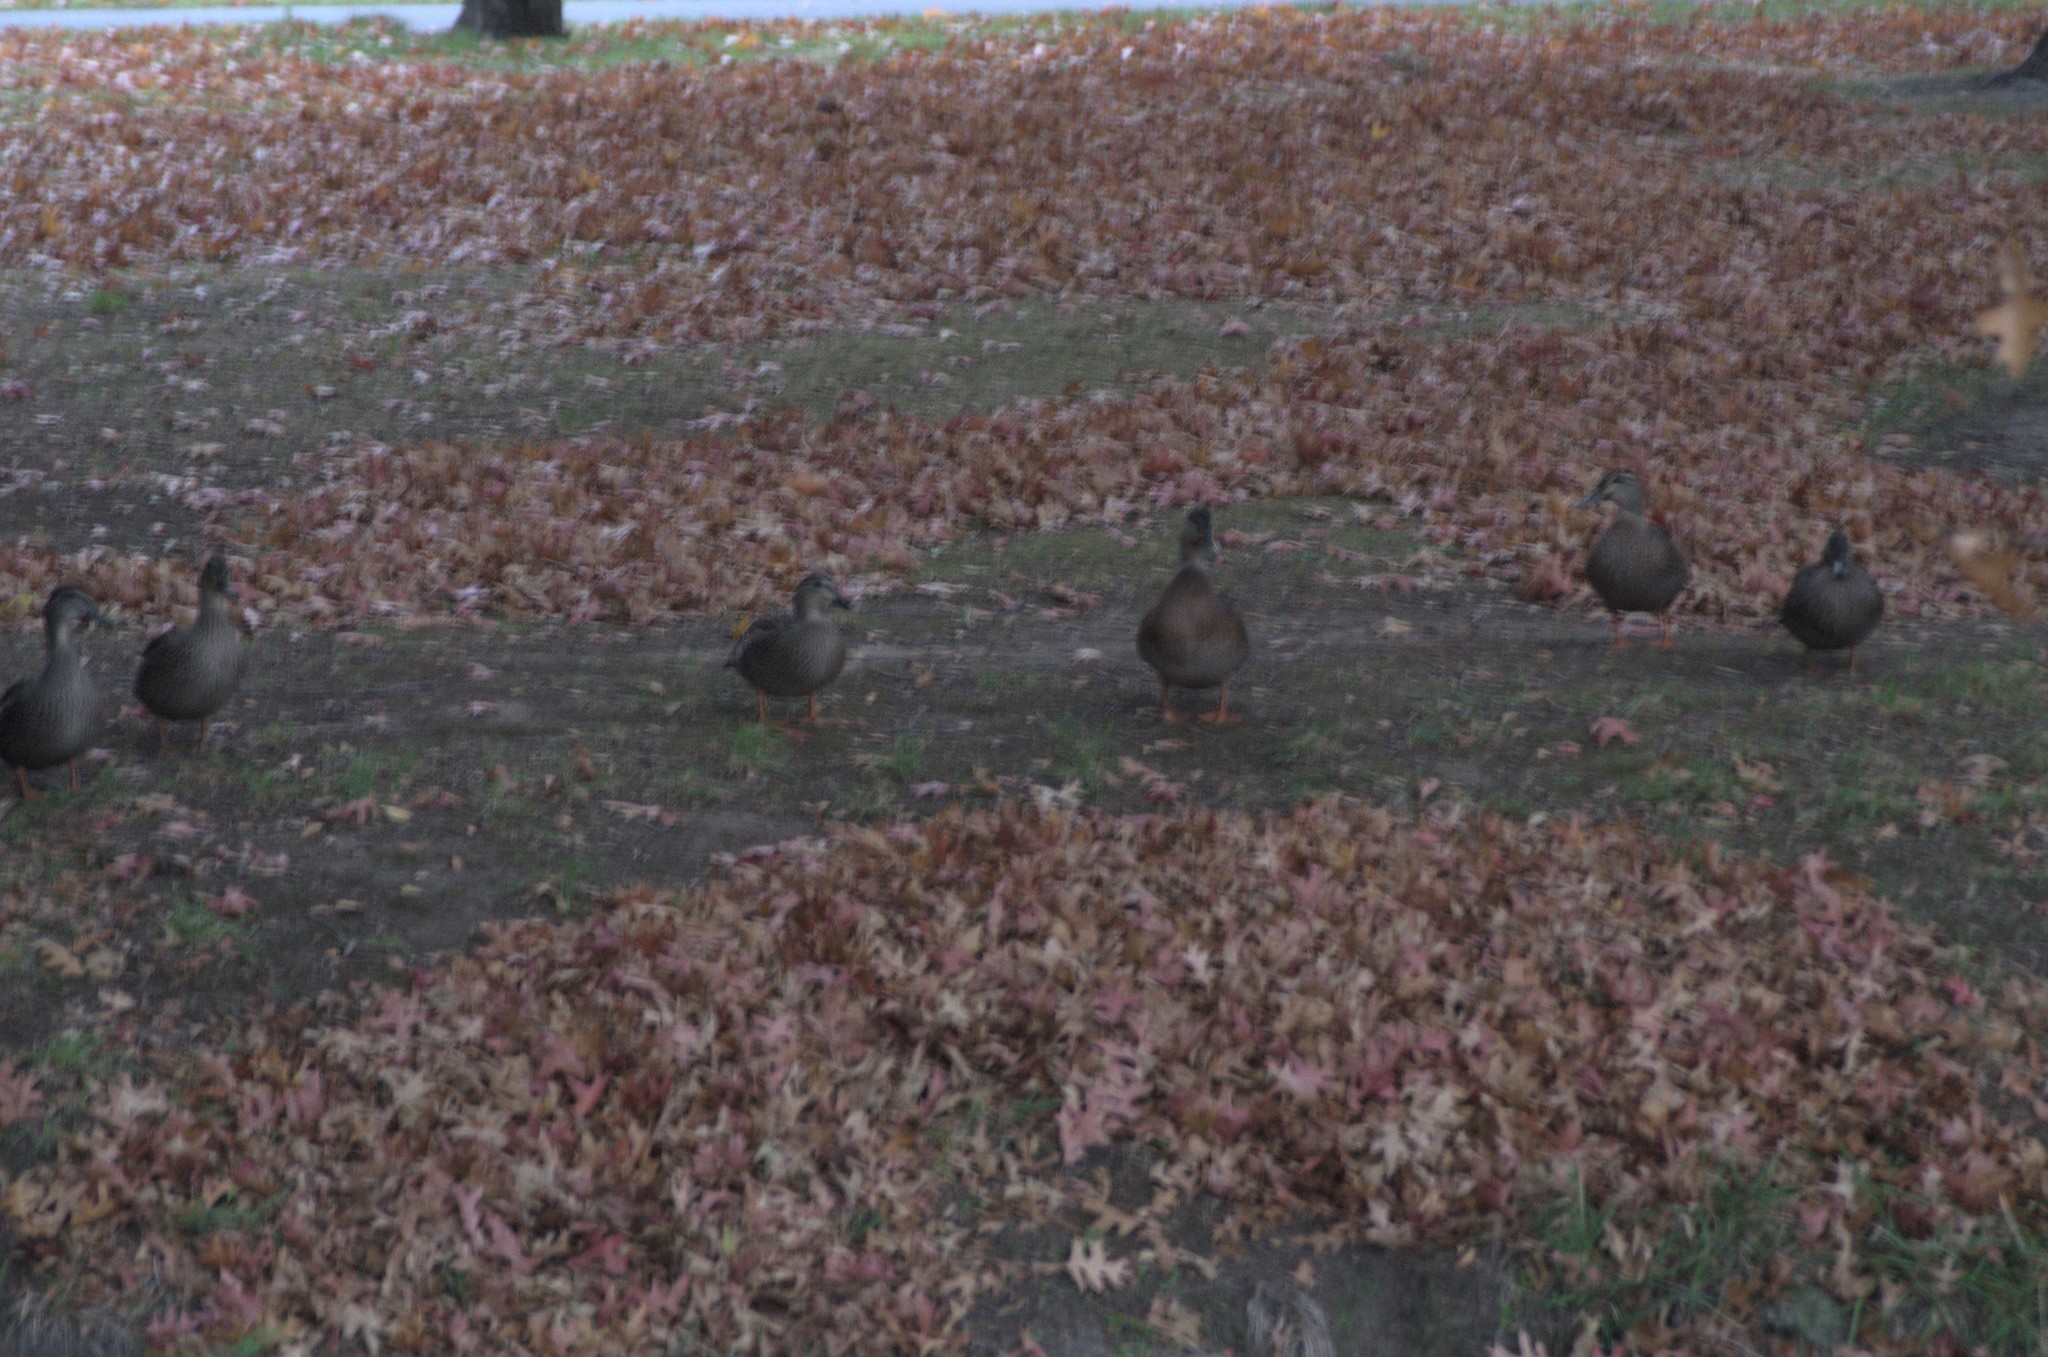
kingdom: Animalia
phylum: Chordata
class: Aves
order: Anseriformes
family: Anatidae
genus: Anas
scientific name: Anas platyrhynchos
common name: Mallard
